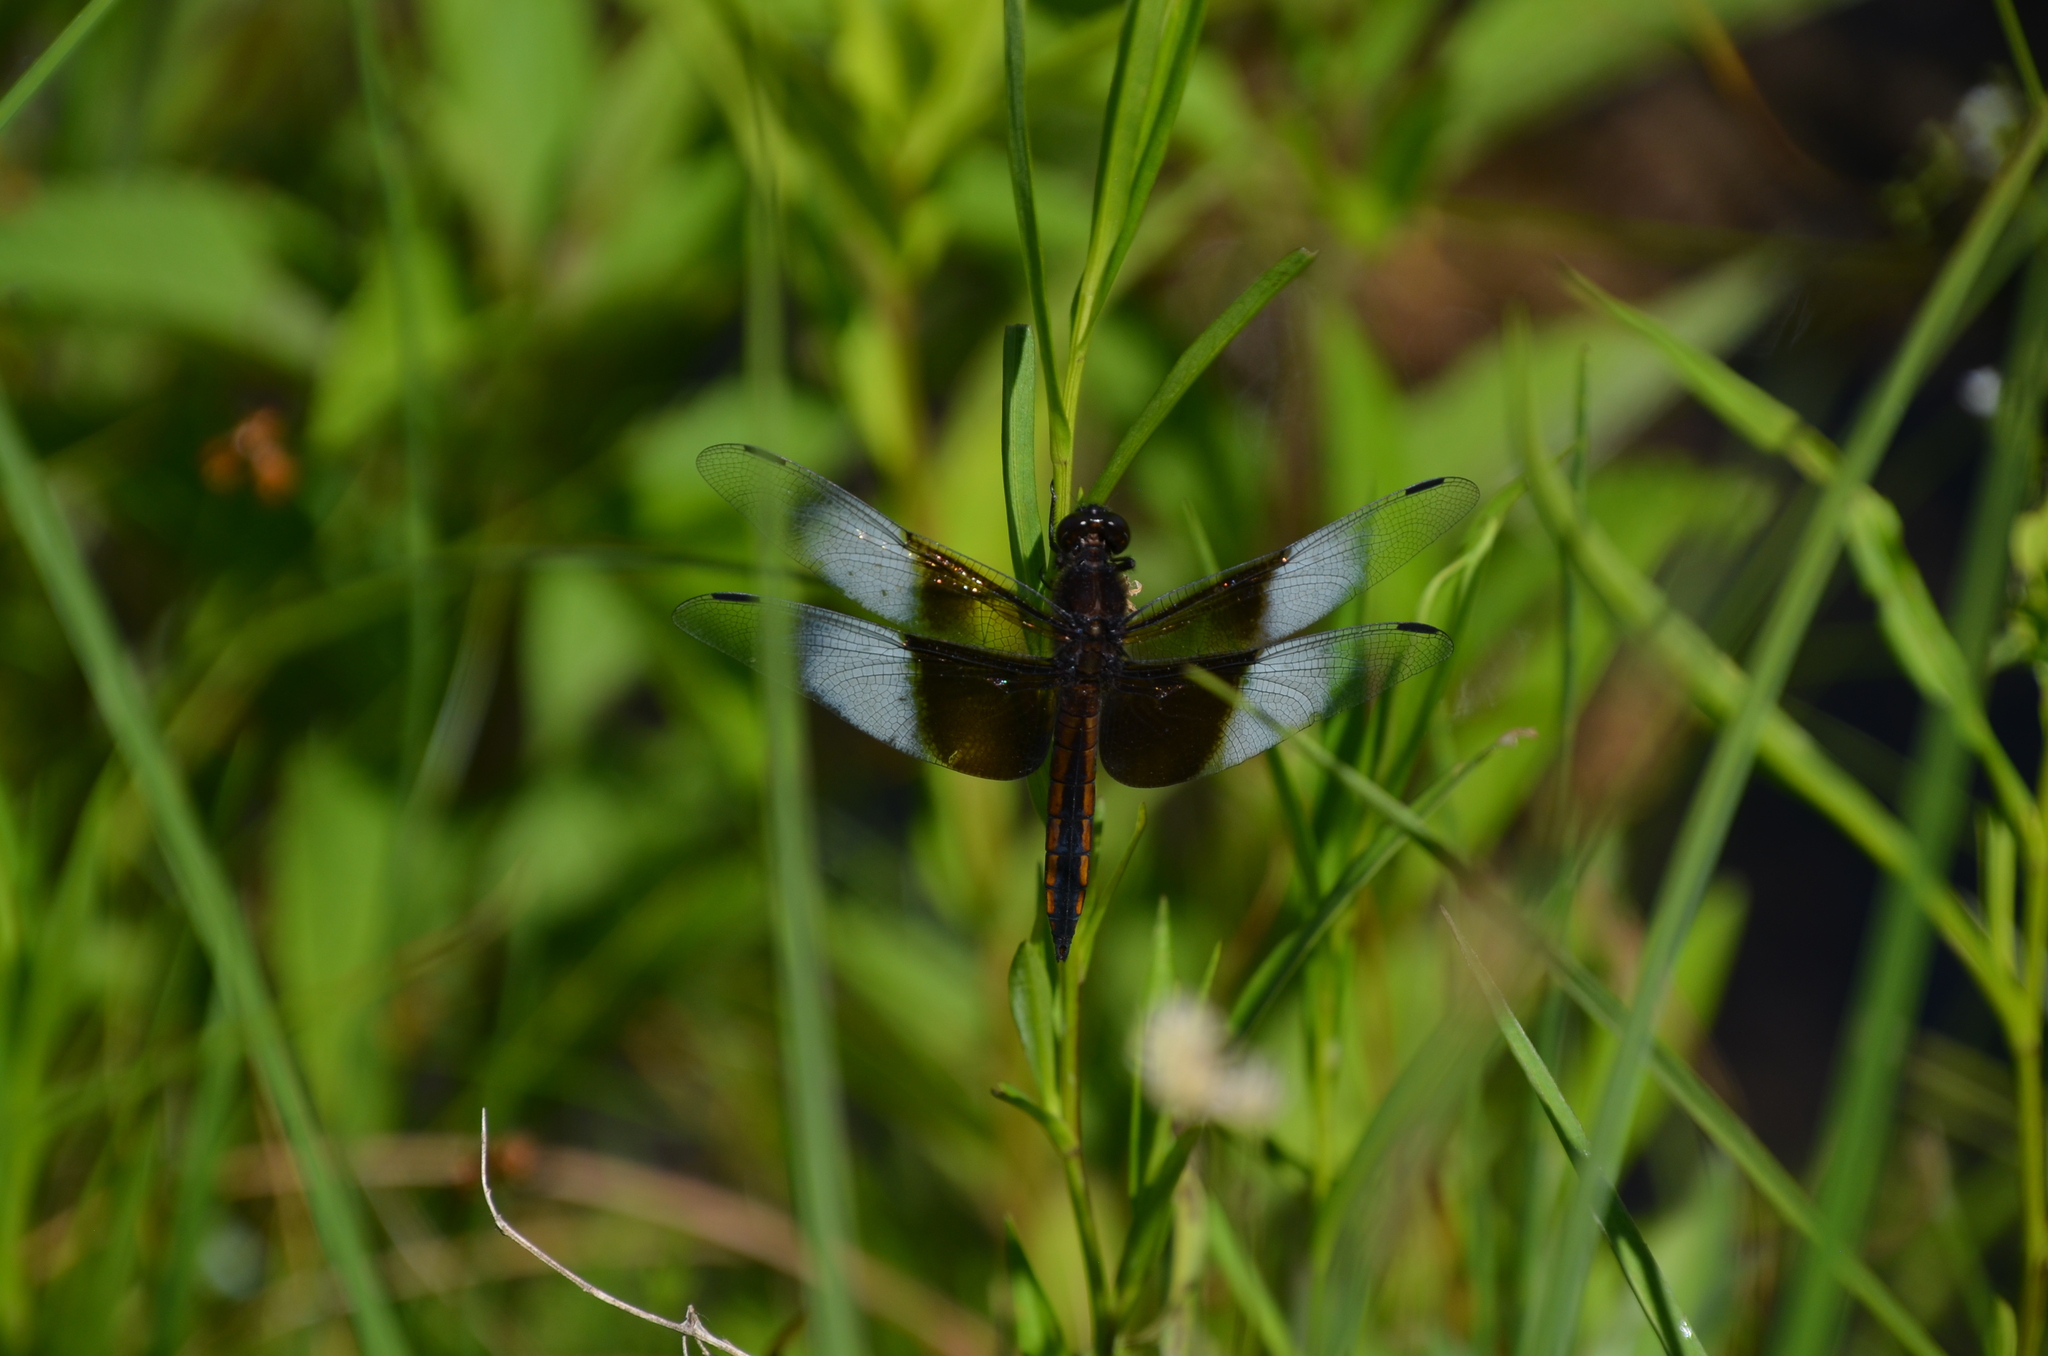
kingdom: Animalia
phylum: Arthropoda
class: Insecta
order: Odonata
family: Libellulidae
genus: Libellula
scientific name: Libellula luctuosa
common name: Widow skimmer
